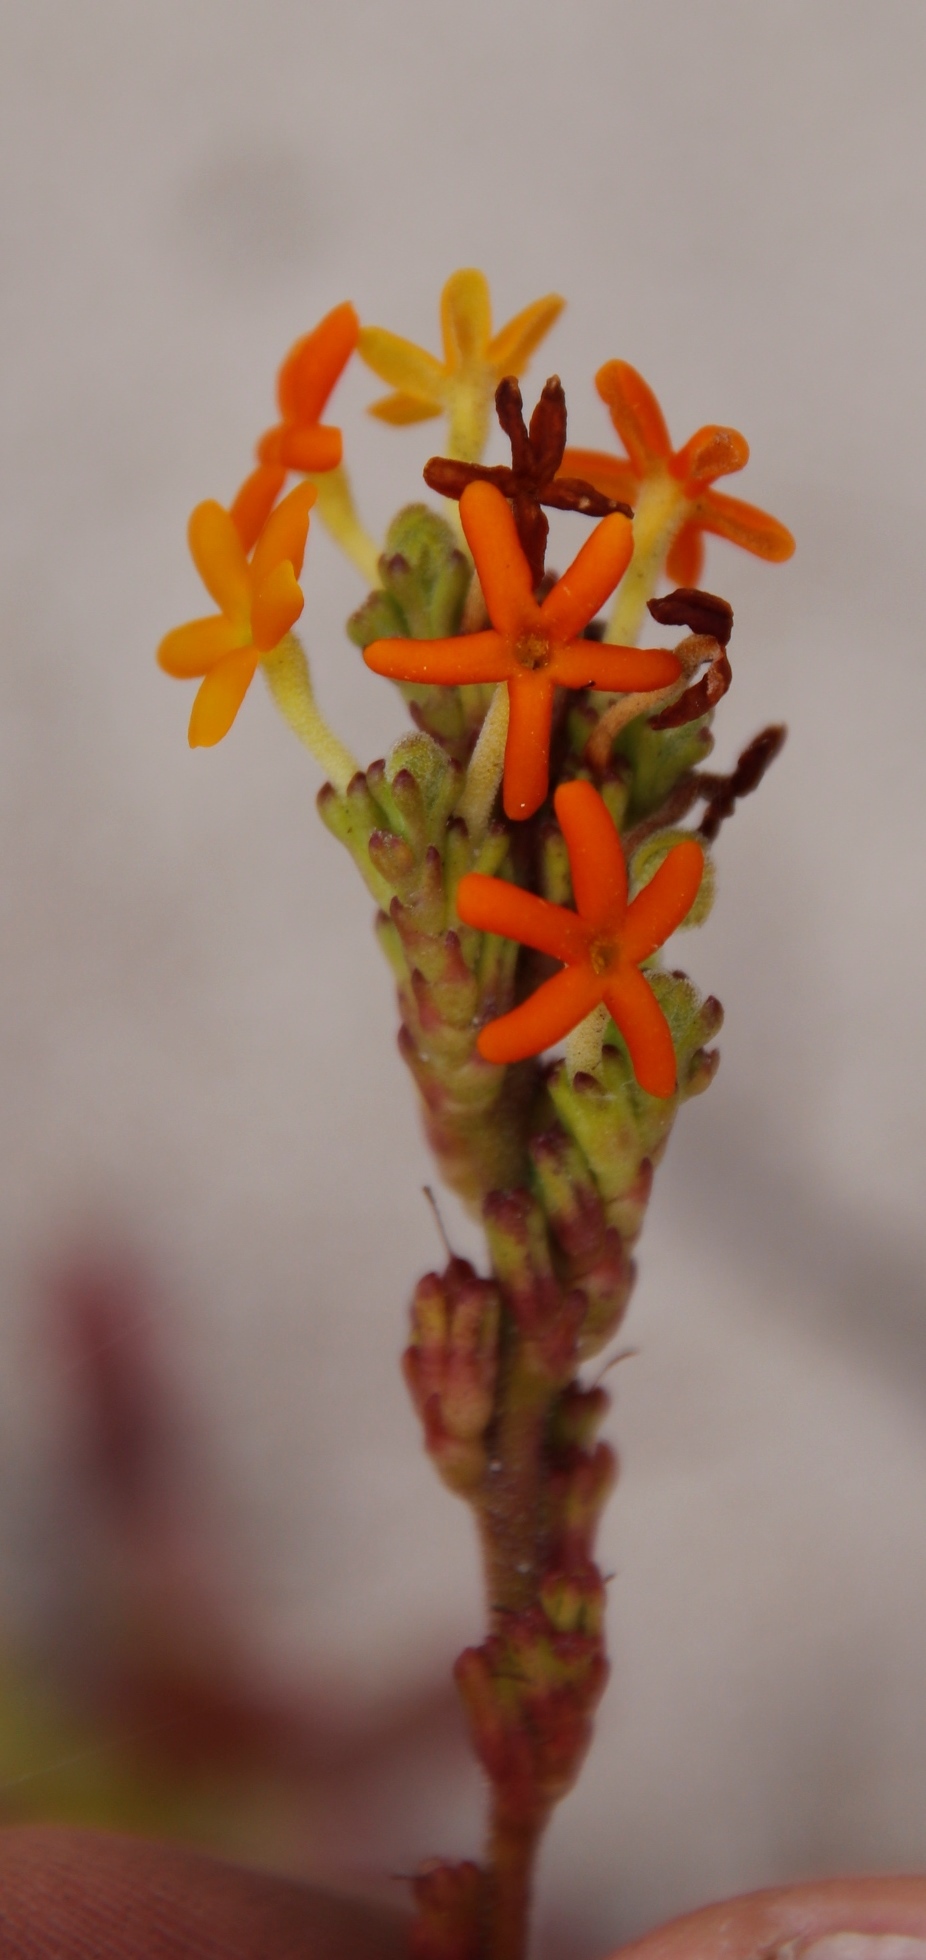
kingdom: Plantae
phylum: Tracheophyta
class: Magnoliopsida
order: Lamiales
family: Scrophulariaceae
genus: Manulea
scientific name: Manulea tomentosa
